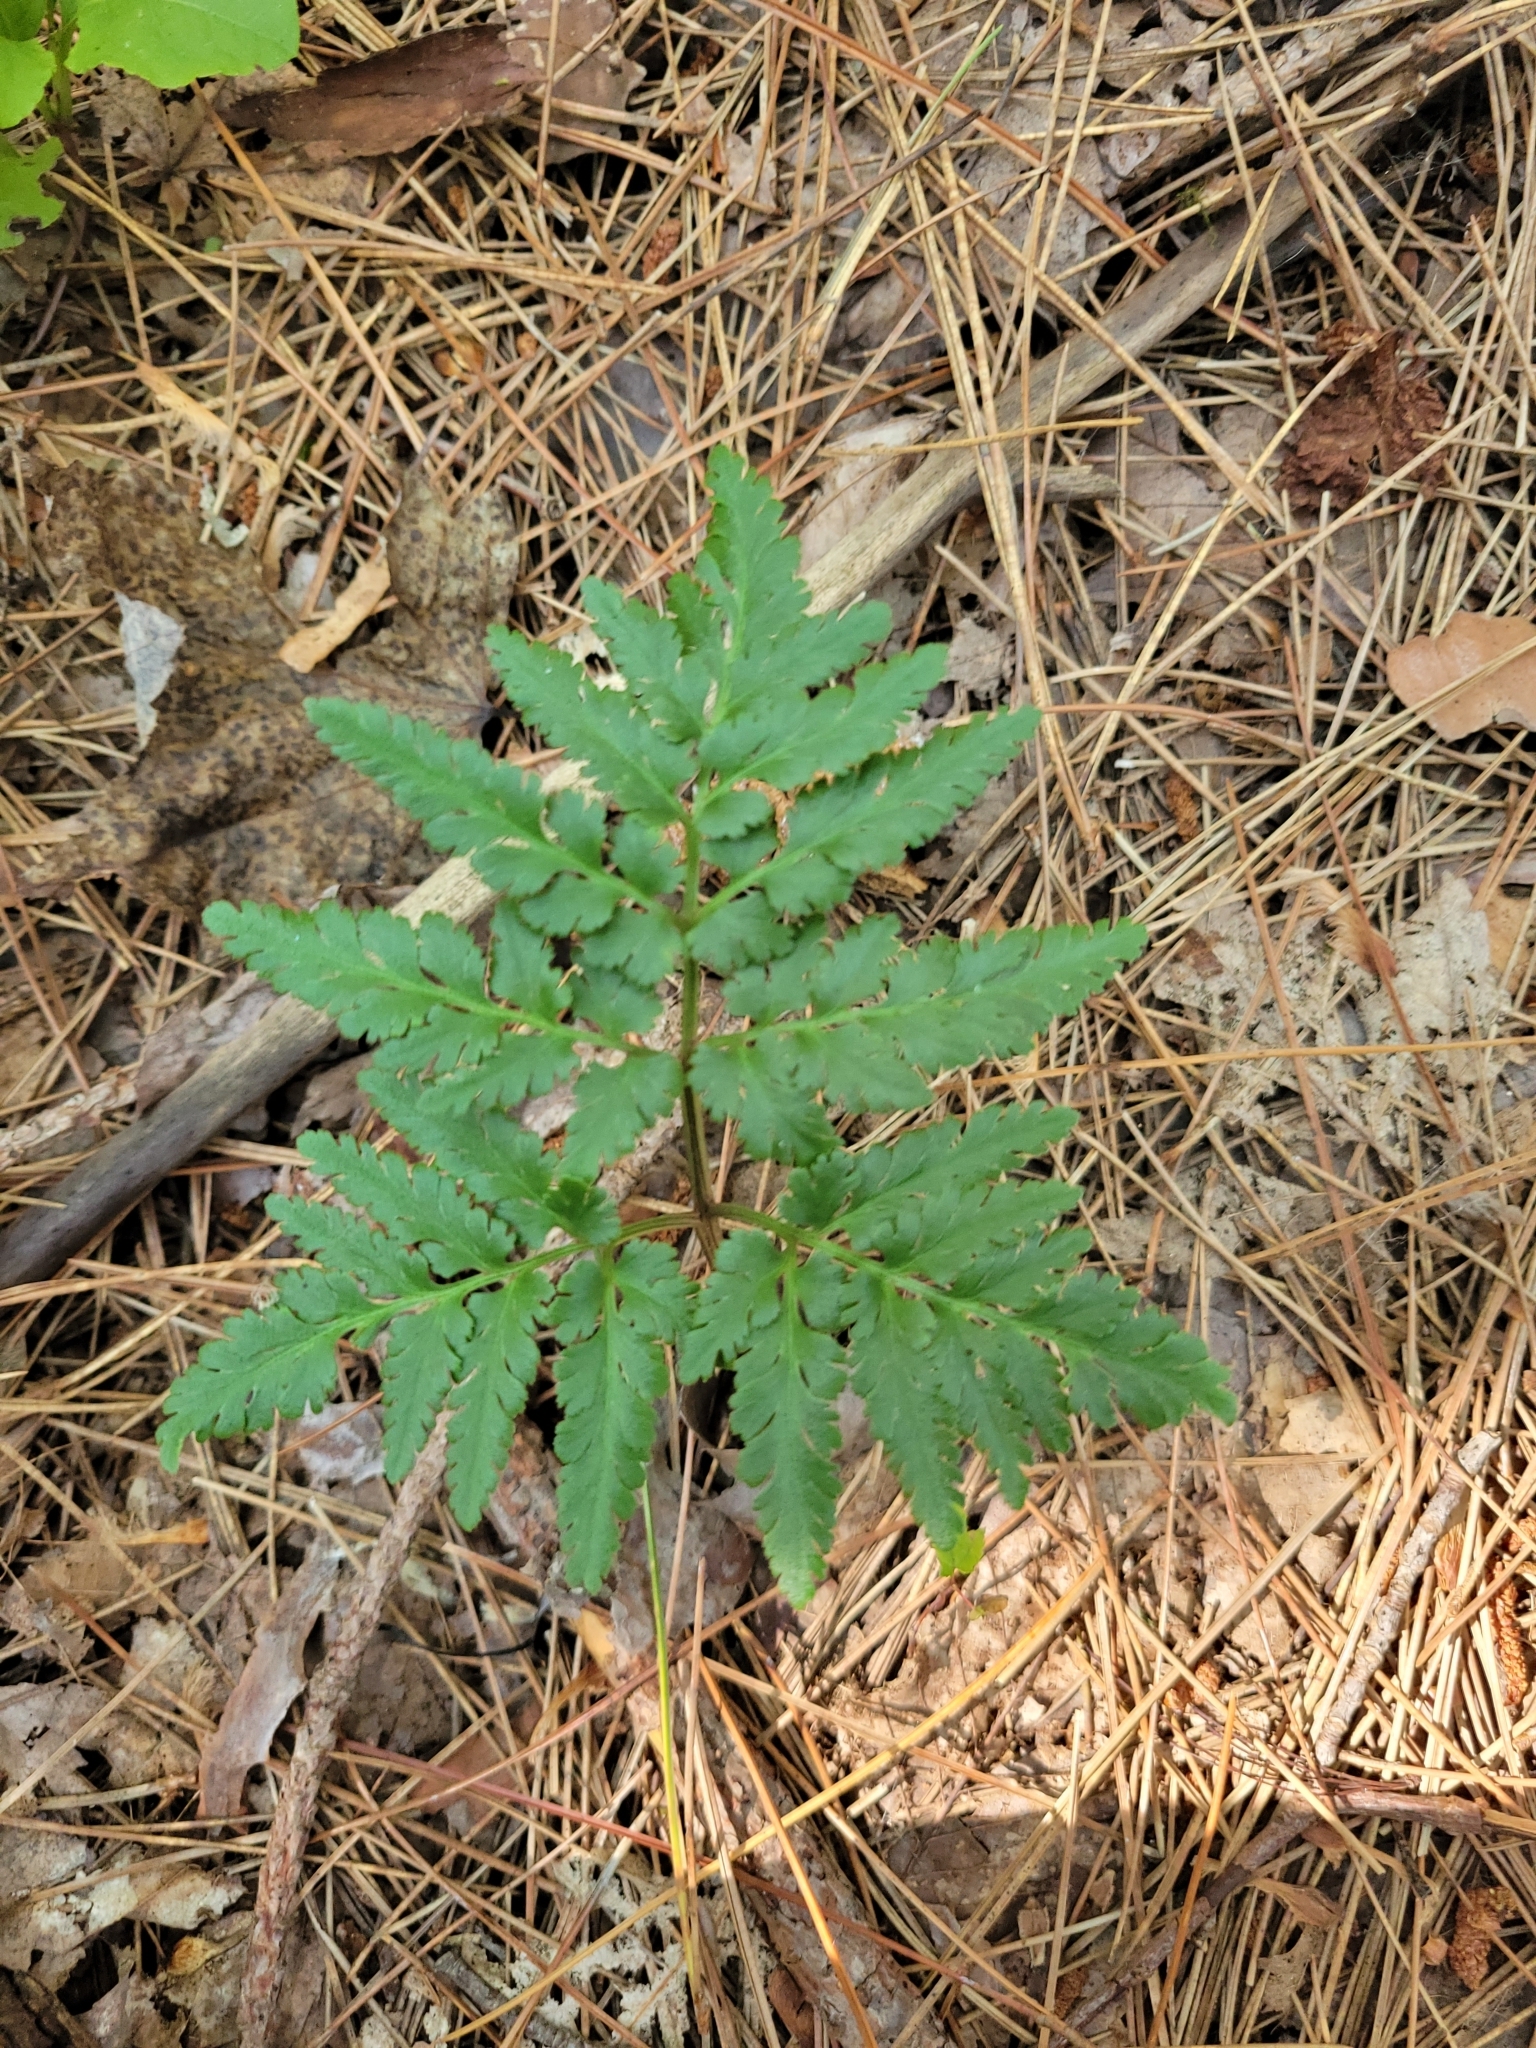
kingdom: Plantae
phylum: Tracheophyta
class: Polypodiopsida
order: Ophioglossales
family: Ophioglossaceae
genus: Sceptridium
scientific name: Sceptridium dissectum
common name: Cut-leaved grapefern
